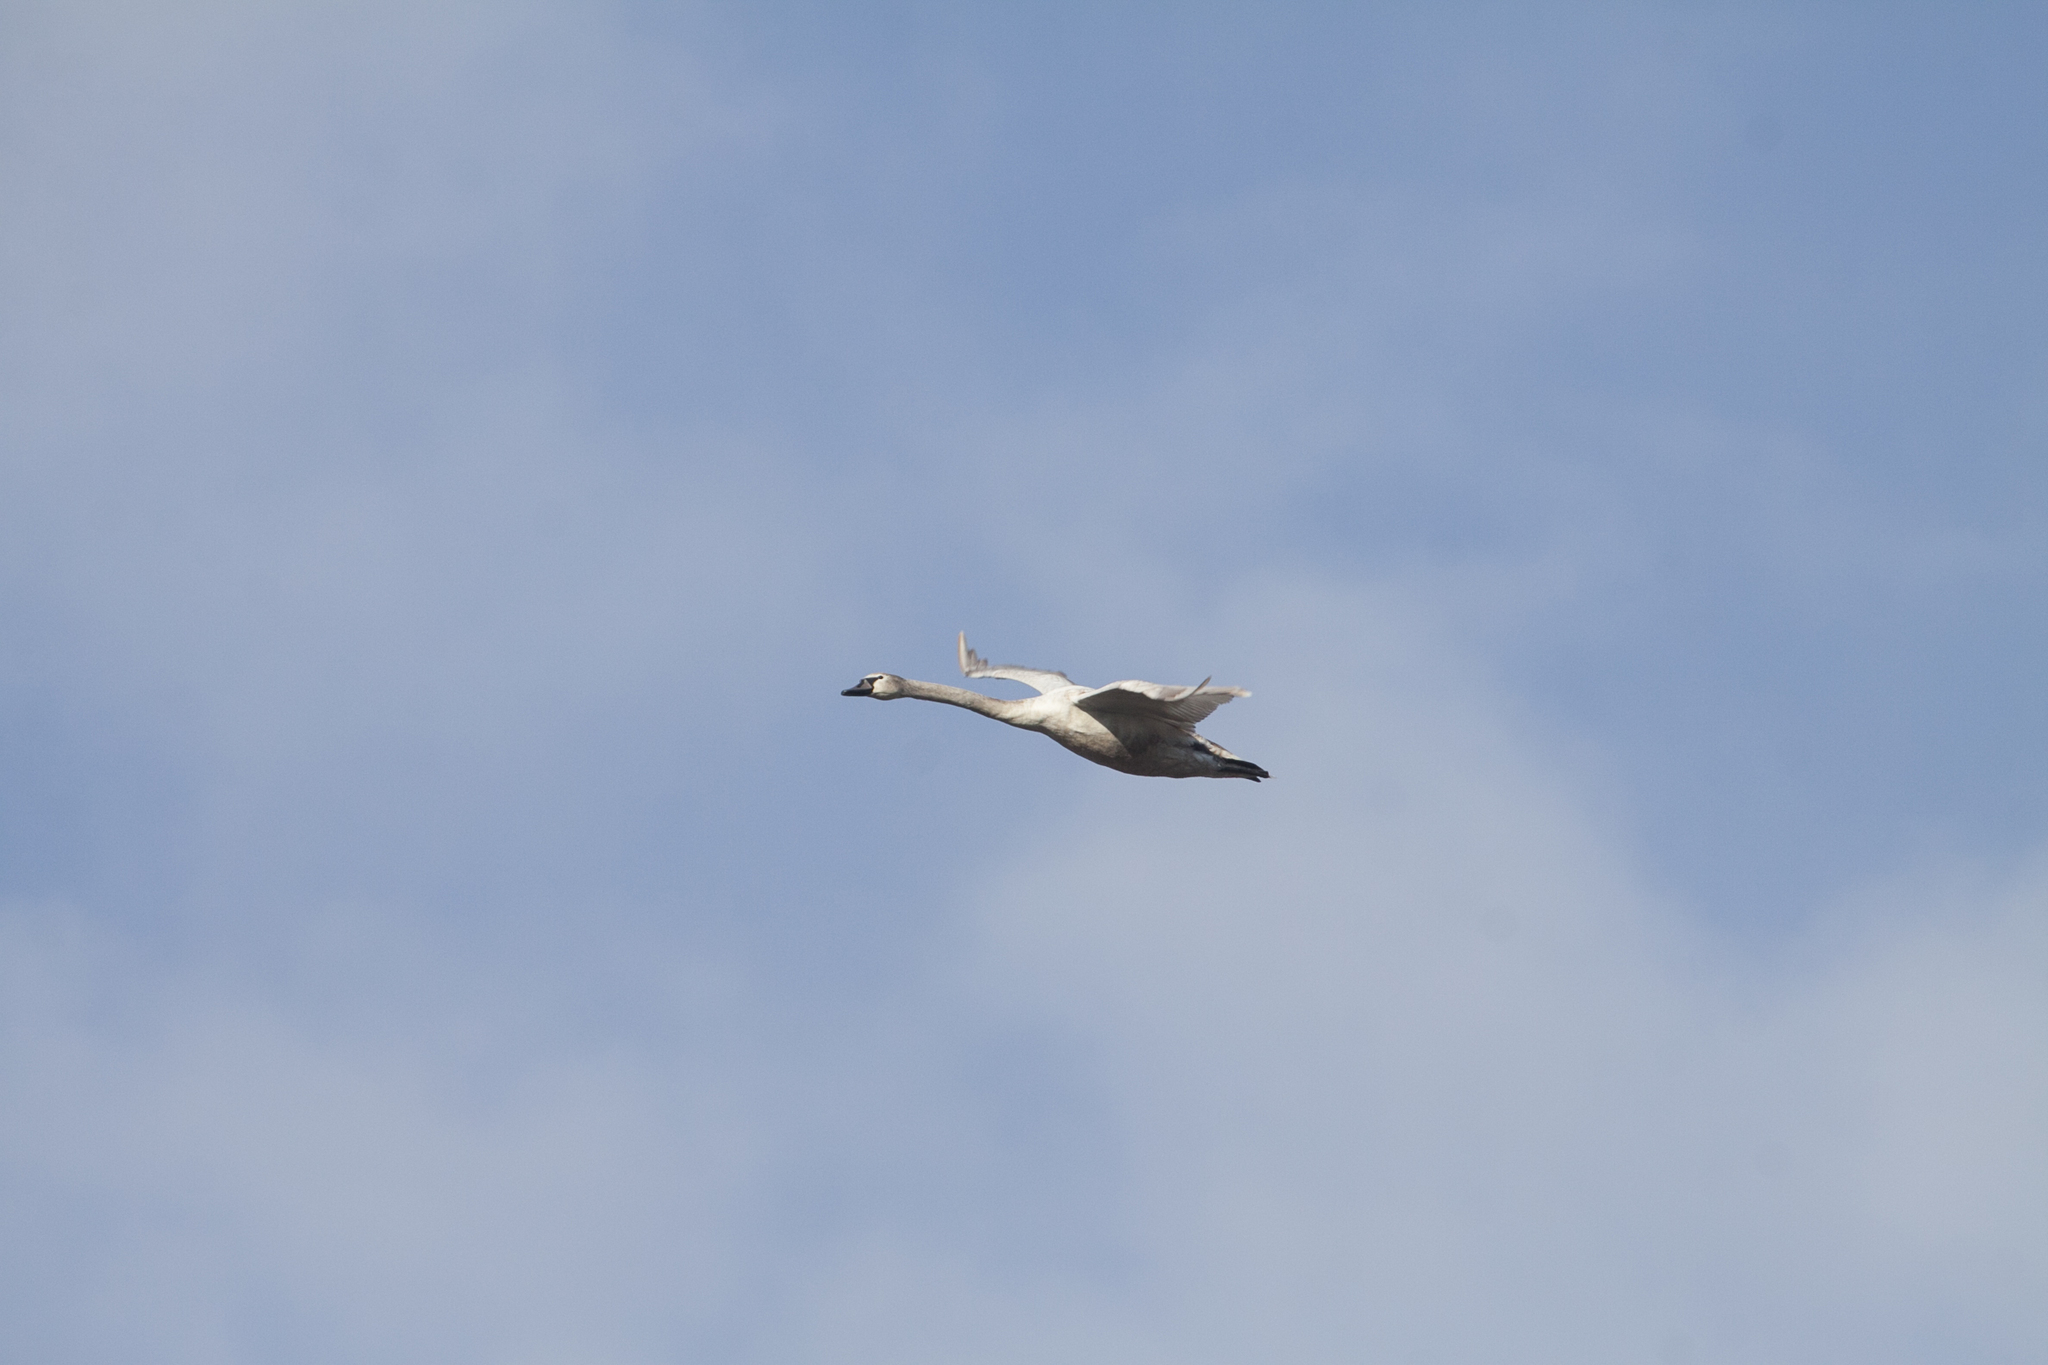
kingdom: Animalia
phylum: Chordata
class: Aves
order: Anseriformes
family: Anatidae
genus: Cygnus
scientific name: Cygnus olor
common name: Mute swan
